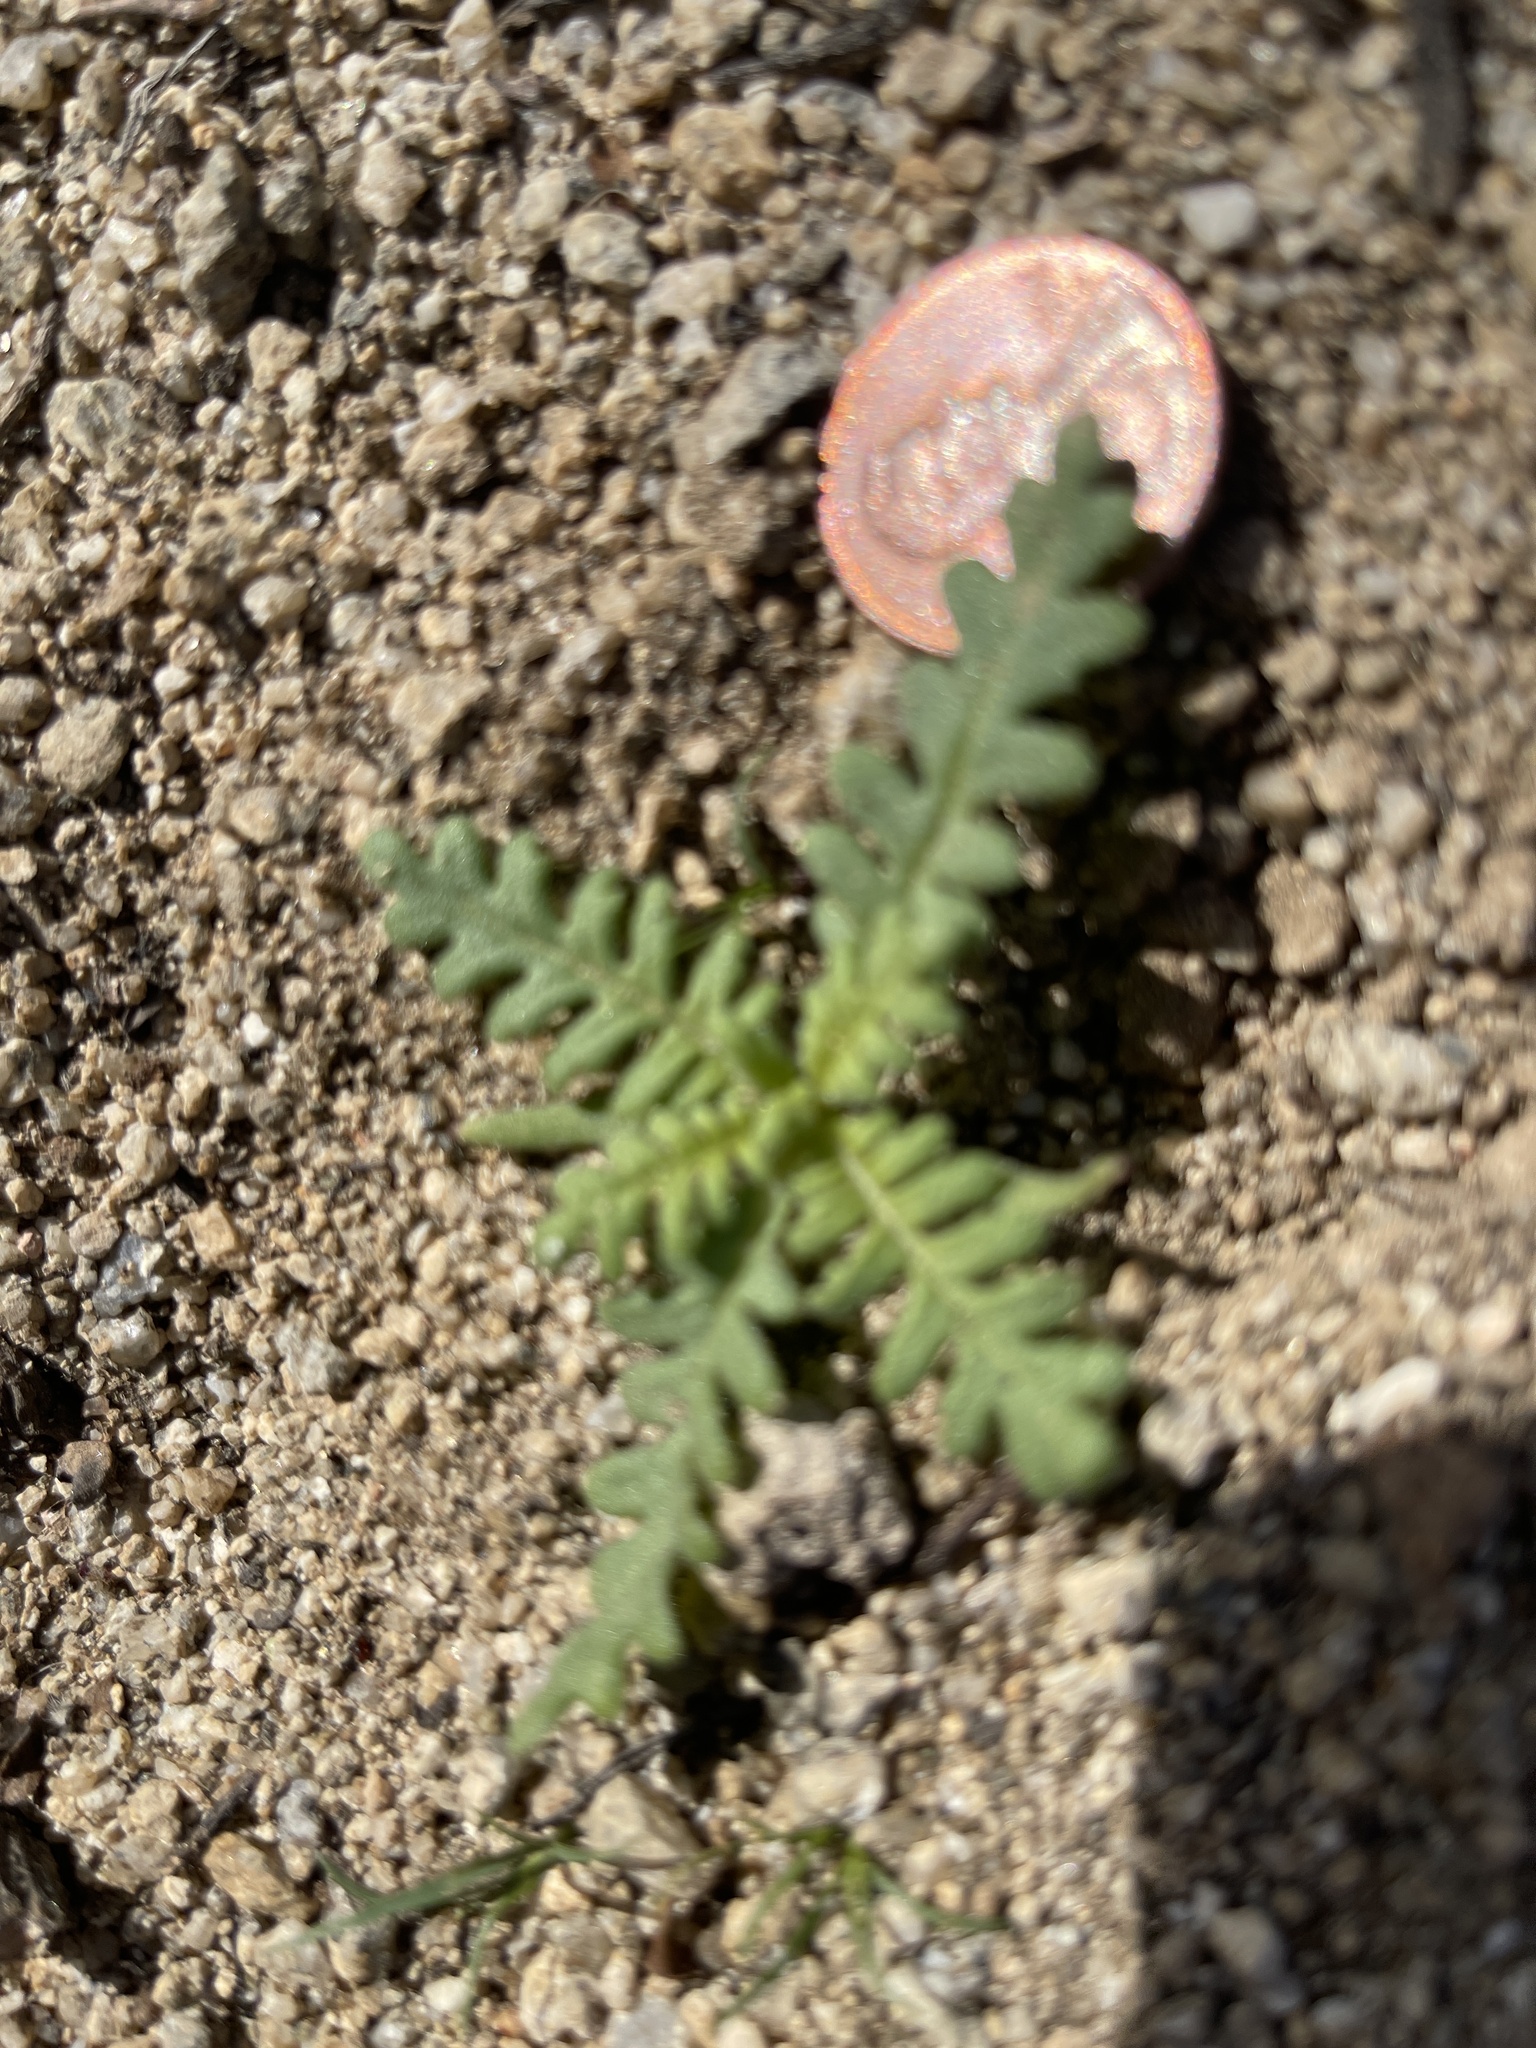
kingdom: Plantae
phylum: Tracheophyta
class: Magnoliopsida
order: Boraginales
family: Hydrophyllaceae
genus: Emmenanthe
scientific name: Emmenanthe penduliflora
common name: Whispering-bells
